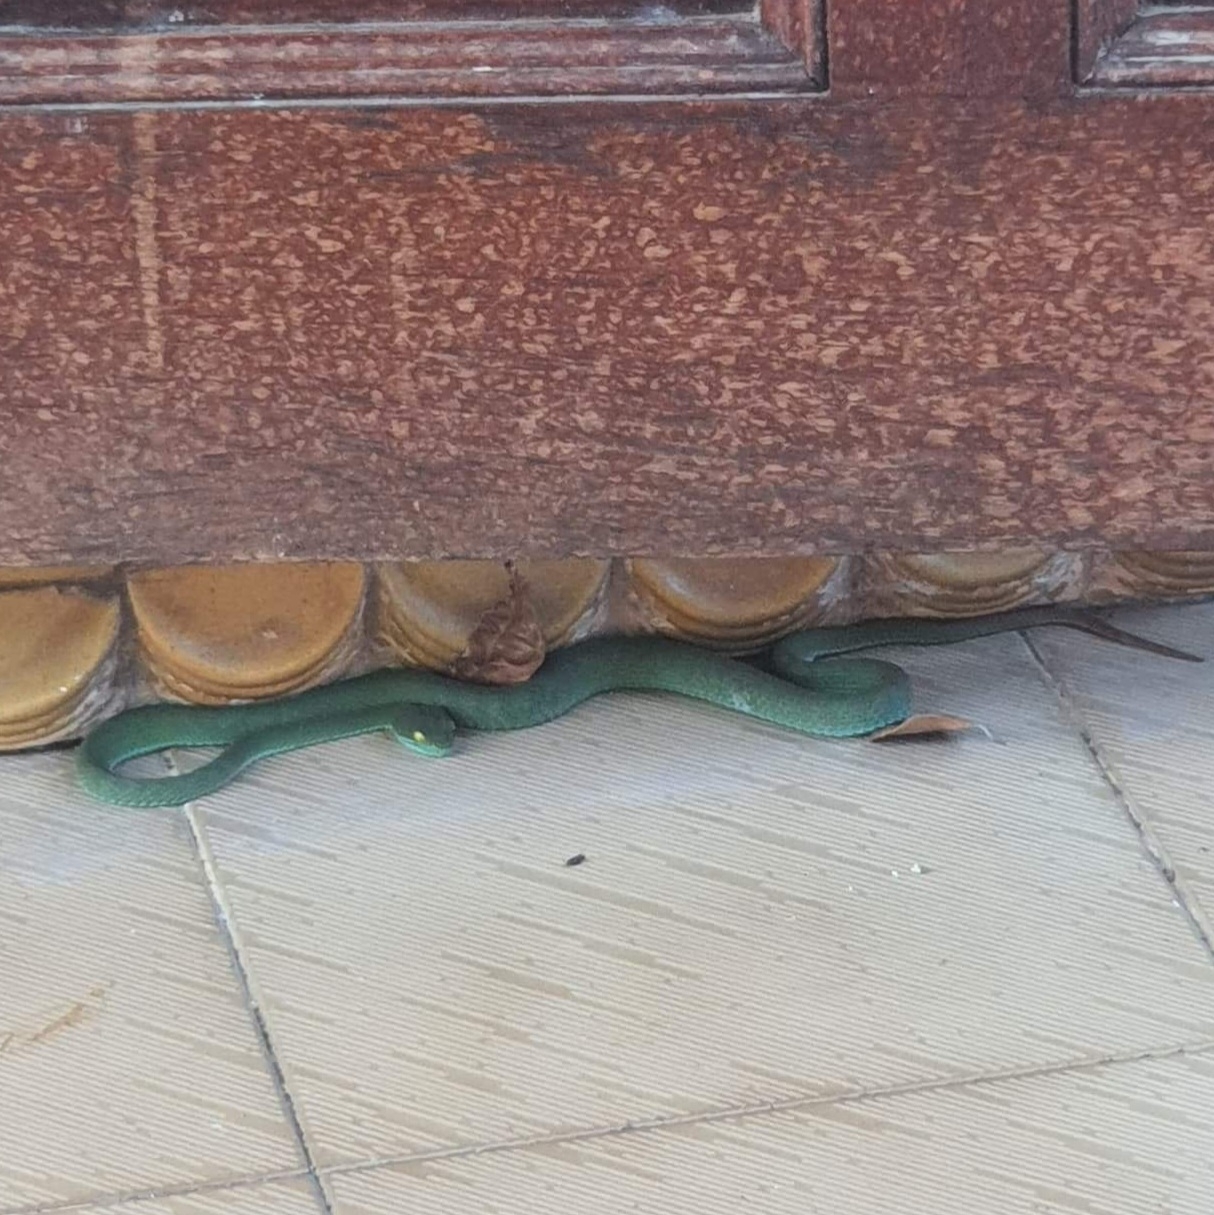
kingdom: Animalia
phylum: Chordata
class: Squamata
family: Viperidae
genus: Trimeresurus
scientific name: Trimeresurus macrops
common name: Kramer's pit viper
